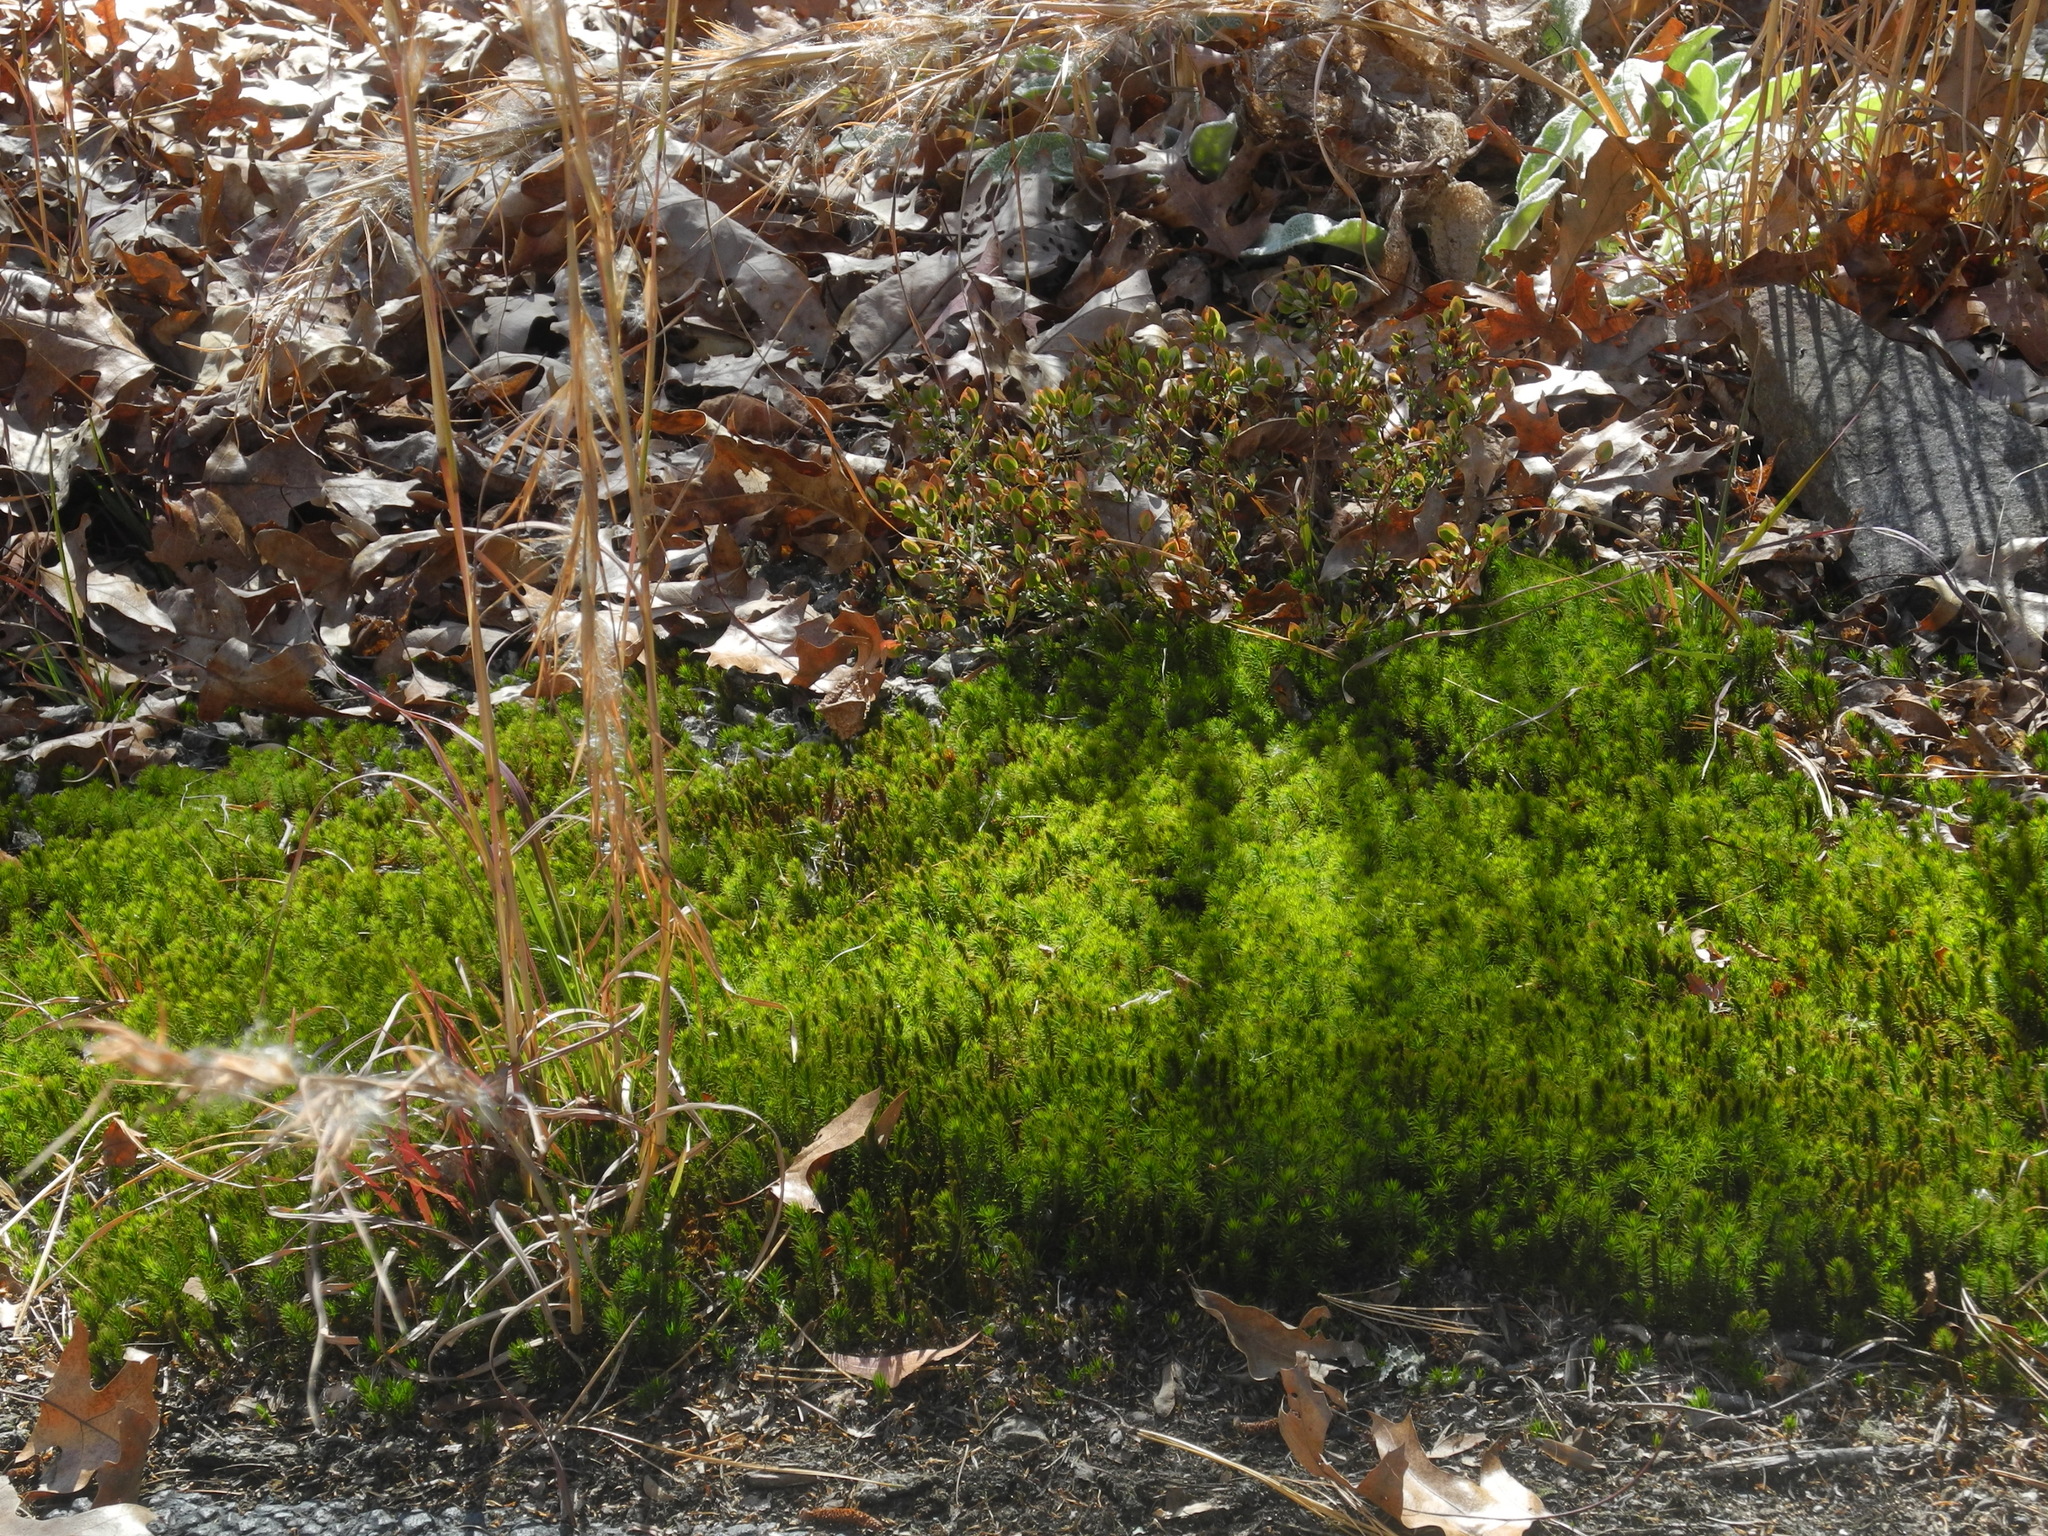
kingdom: Plantae
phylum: Bryophyta
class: Polytrichopsida
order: Polytrichales
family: Polytrichaceae
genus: Polytrichum
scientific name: Polytrichum juniperinum
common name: Juniper haircap moss
